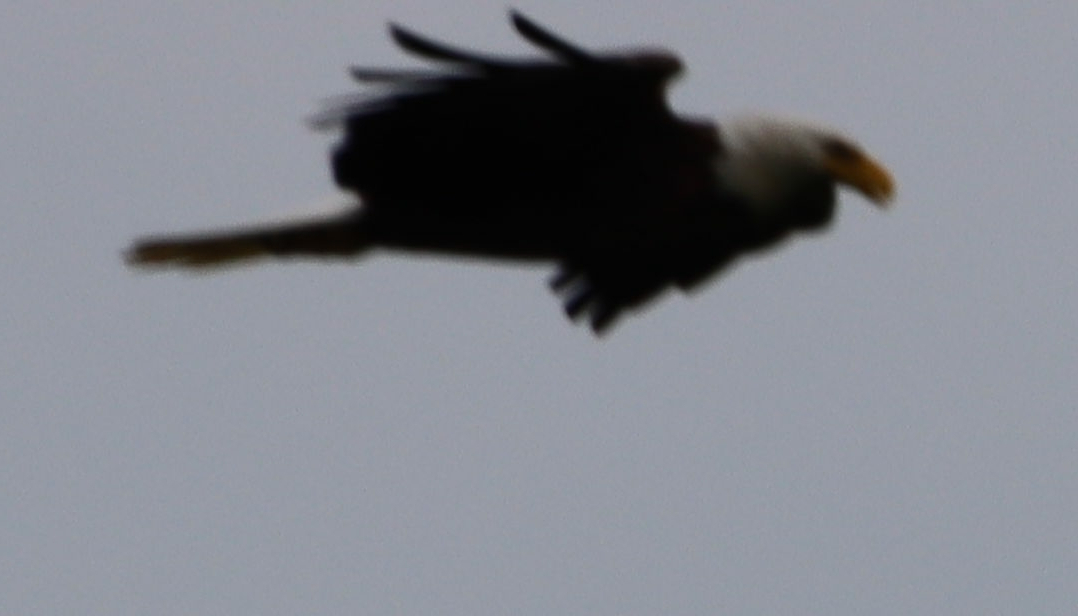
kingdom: Animalia
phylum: Chordata
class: Aves
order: Accipitriformes
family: Accipitridae
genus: Haliaeetus
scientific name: Haliaeetus leucocephalus
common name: Bald eagle
